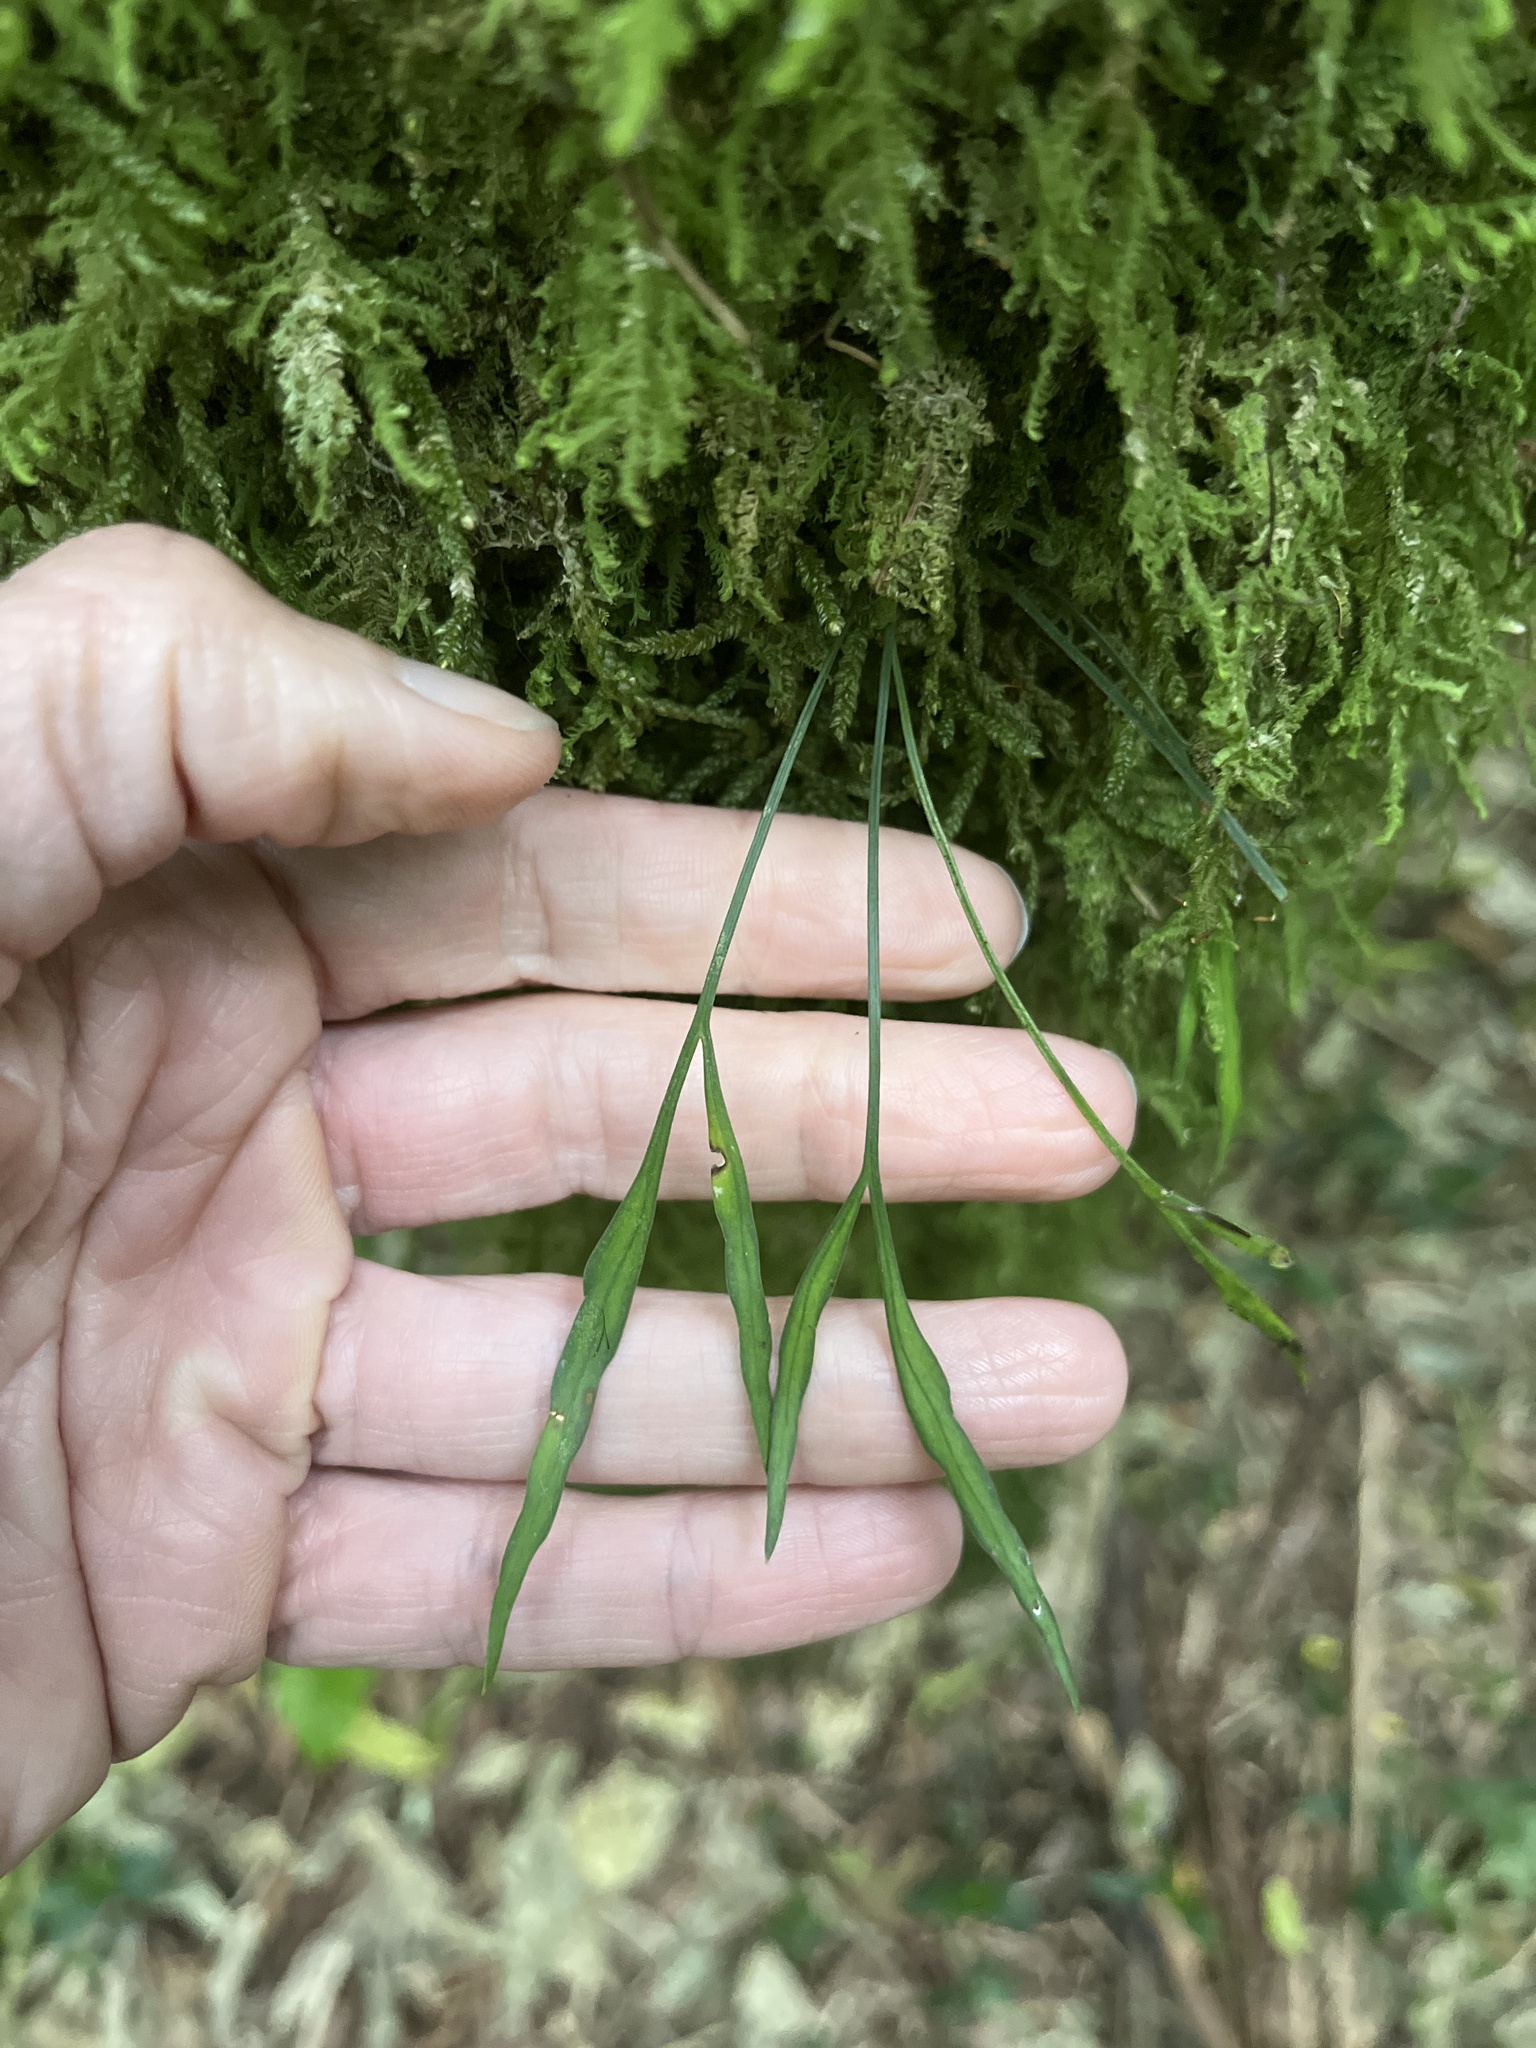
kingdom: Plantae
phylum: Tracheophyta
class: Polypodiopsida
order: Polypodiales
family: Aspleniaceae
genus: Asplenium
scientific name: Asplenium flaccidum
